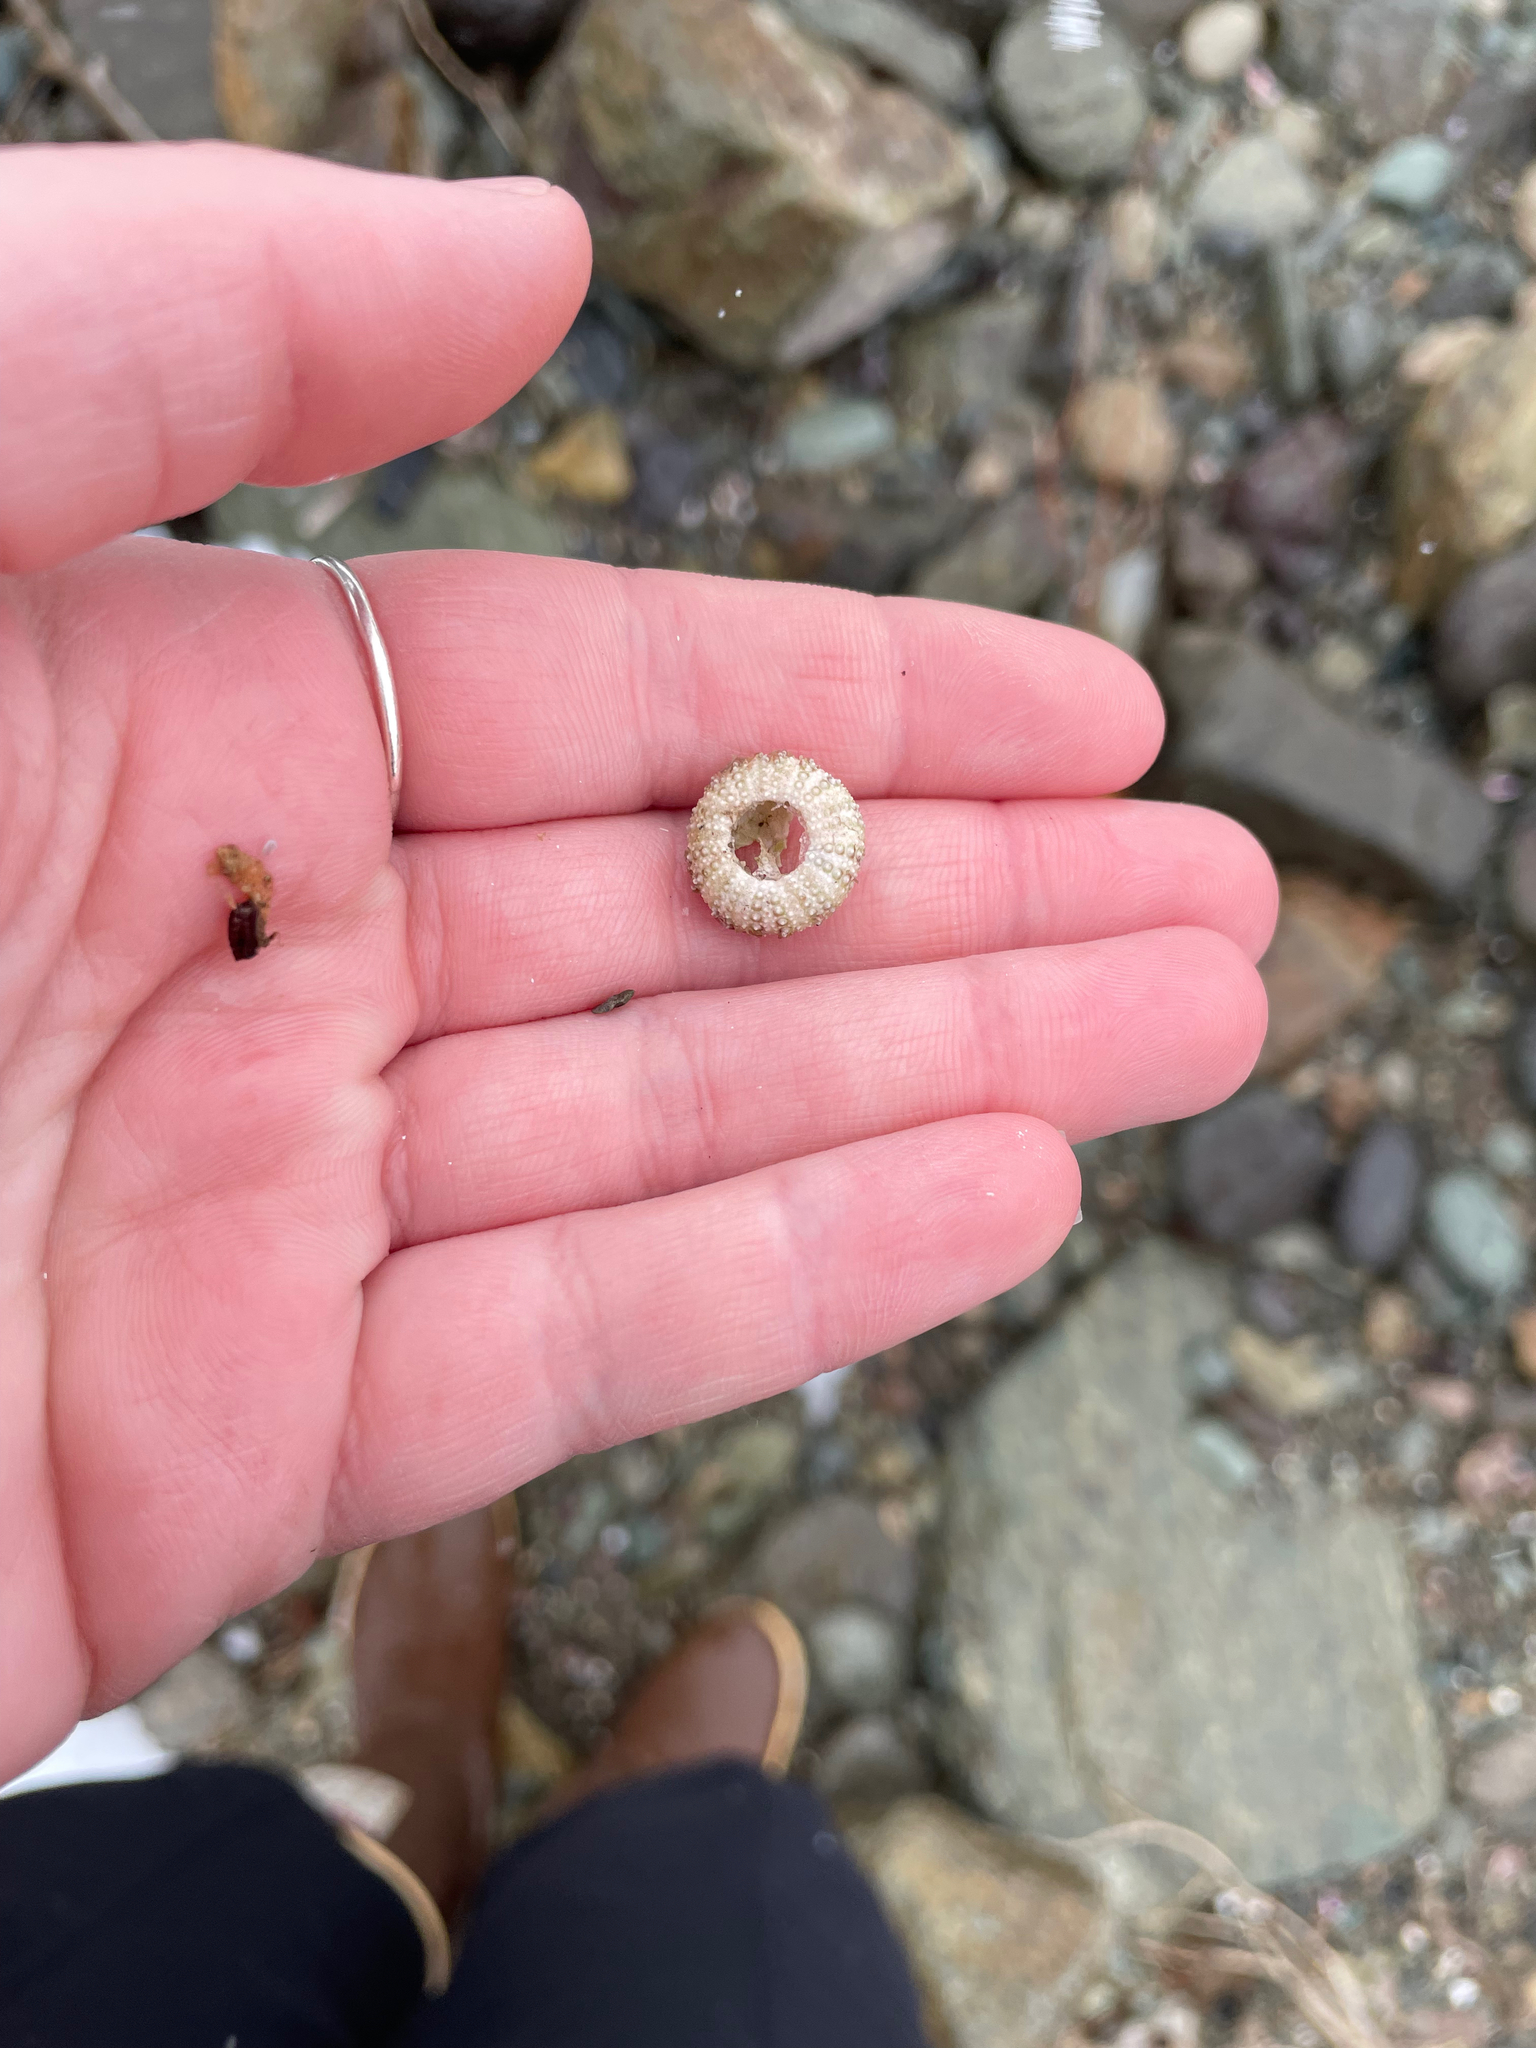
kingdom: Animalia
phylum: Echinodermata
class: Echinoidea
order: Camarodonta
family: Strongylocentrotidae
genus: Strongylocentrotus
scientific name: Strongylocentrotus droebachiensis
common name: Northern sea urchin
